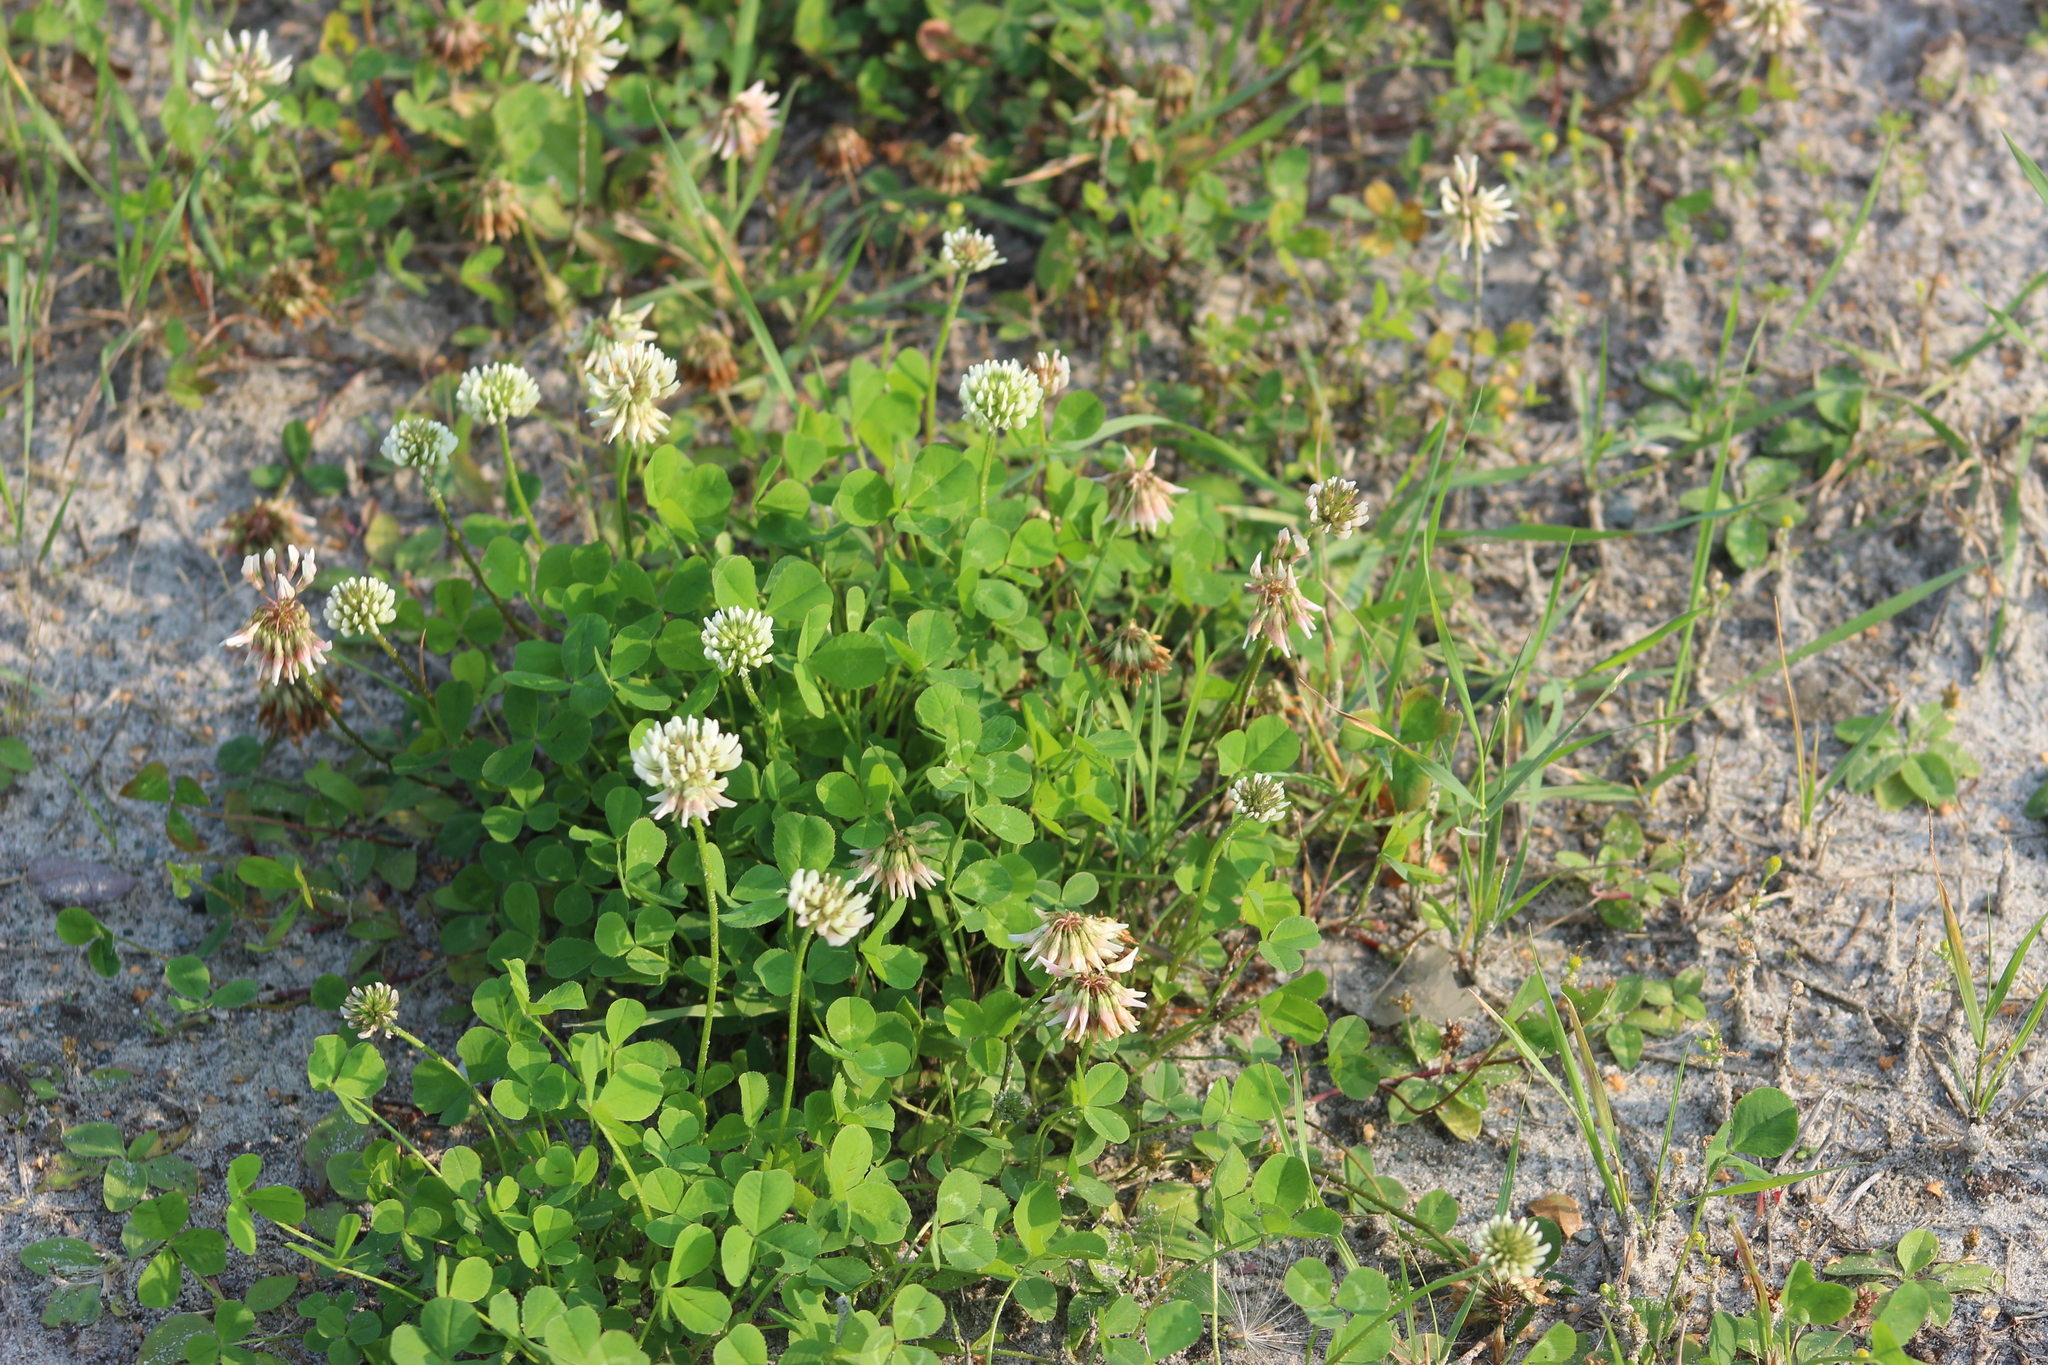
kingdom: Plantae
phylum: Tracheophyta
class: Magnoliopsida
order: Fabales
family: Fabaceae
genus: Trifolium
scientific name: Trifolium repens
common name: White clover
